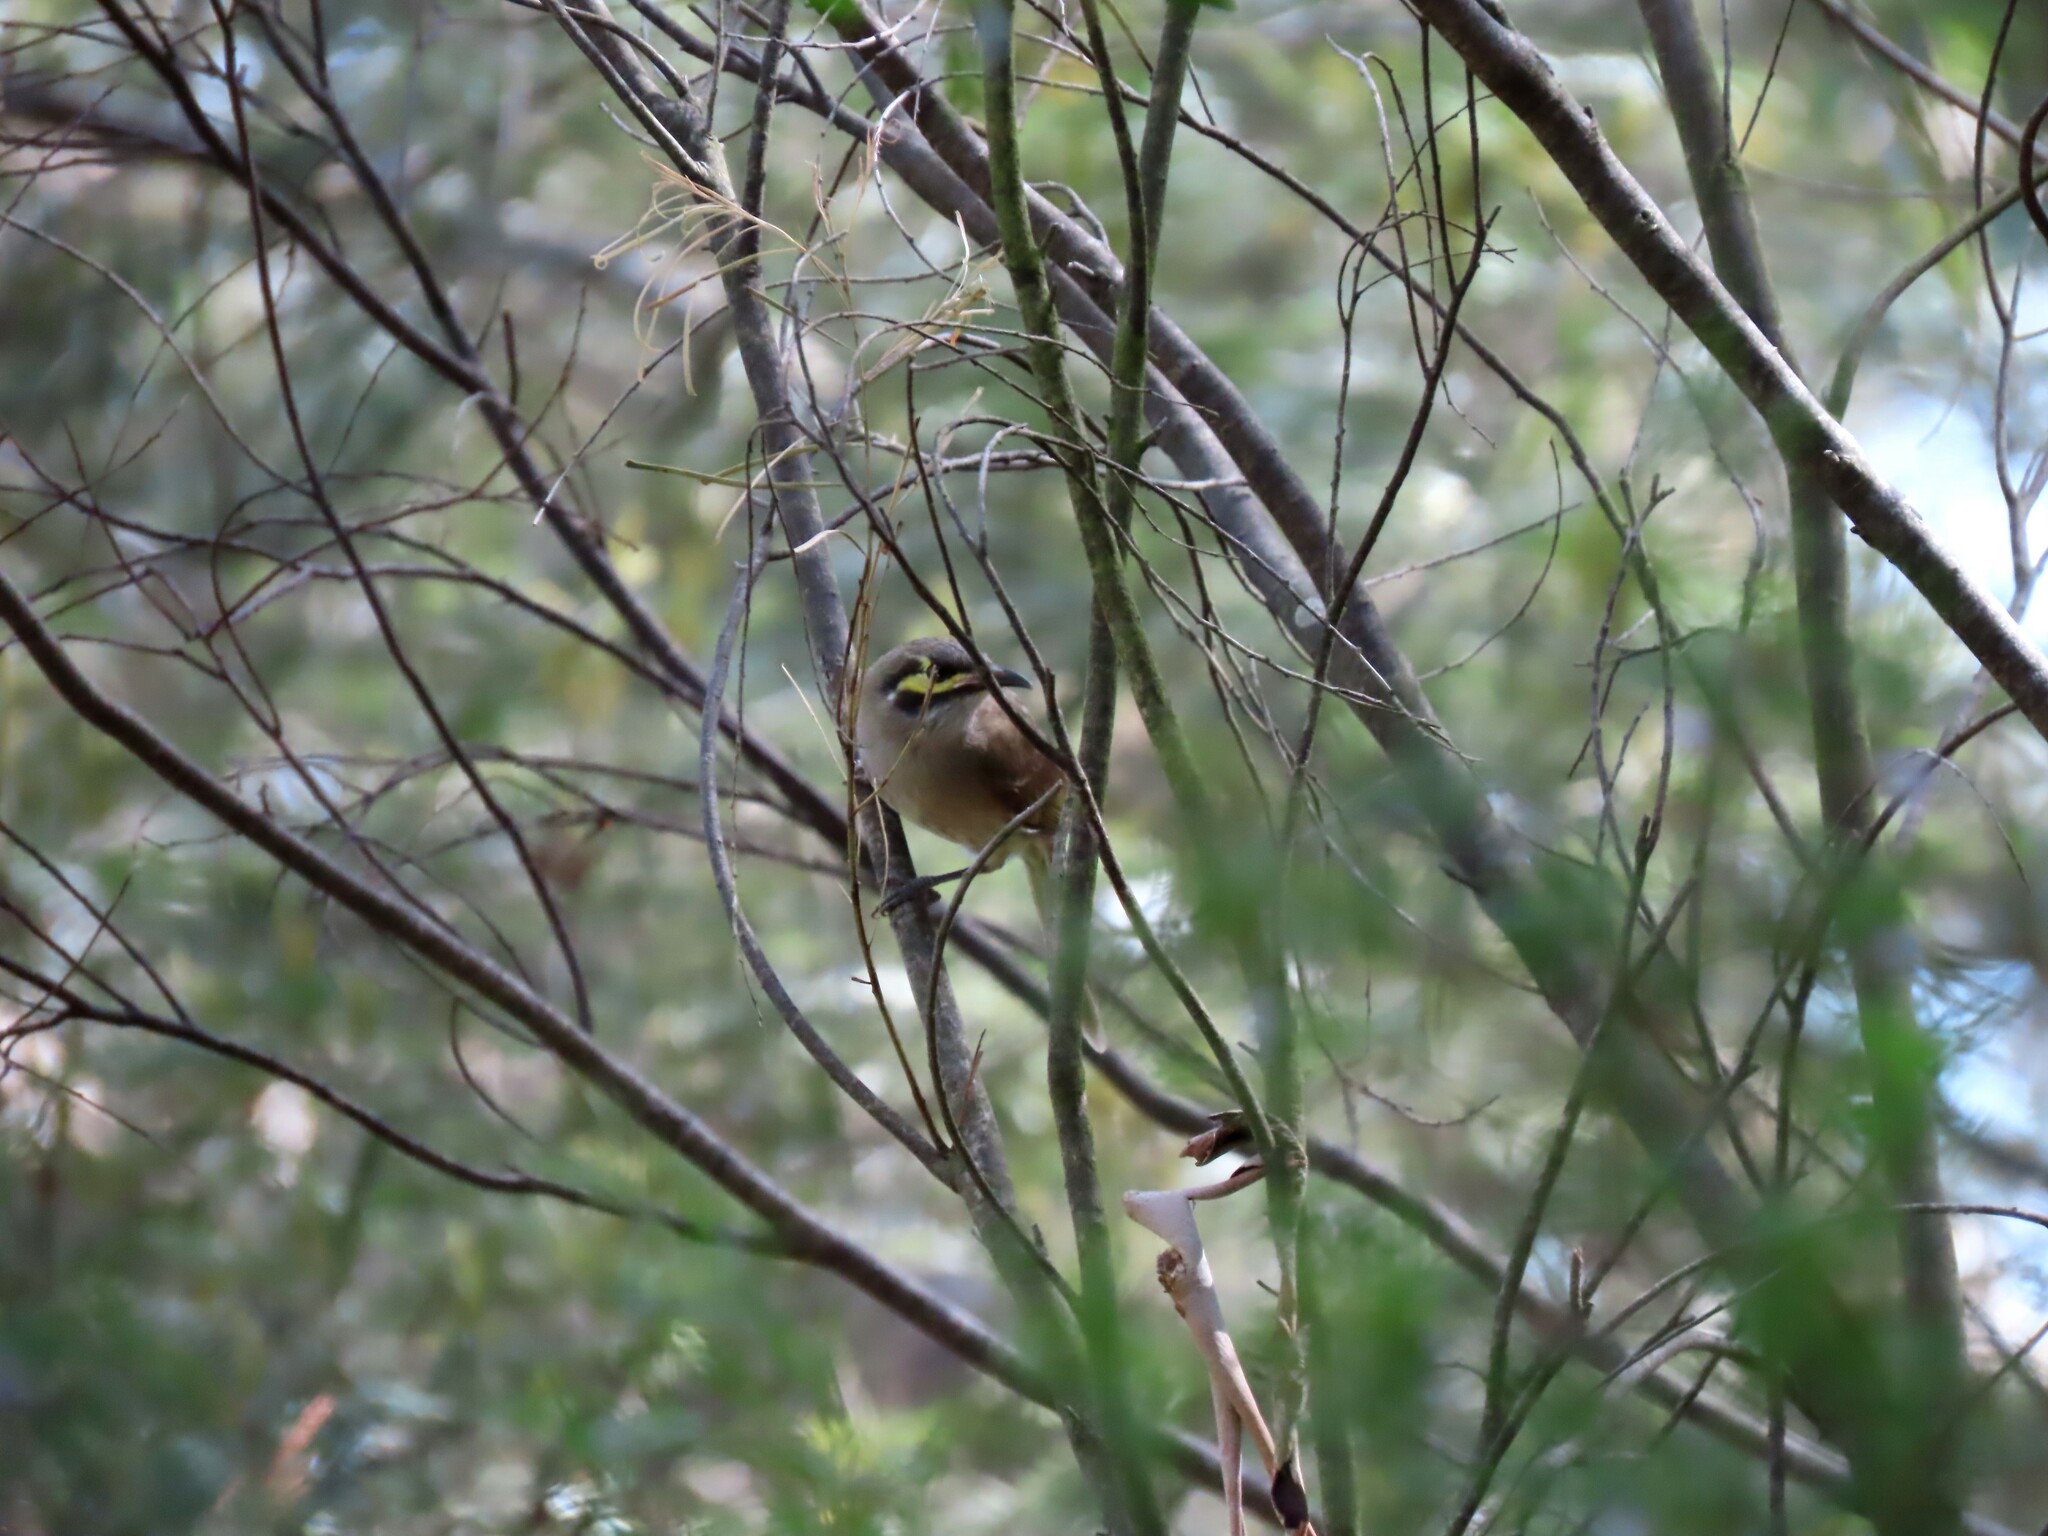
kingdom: Animalia
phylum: Chordata
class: Aves
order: Passeriformes
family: Meliphagidae
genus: Caligavis
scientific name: Caligavis chrysops
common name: Yellow-faced honeyeater
